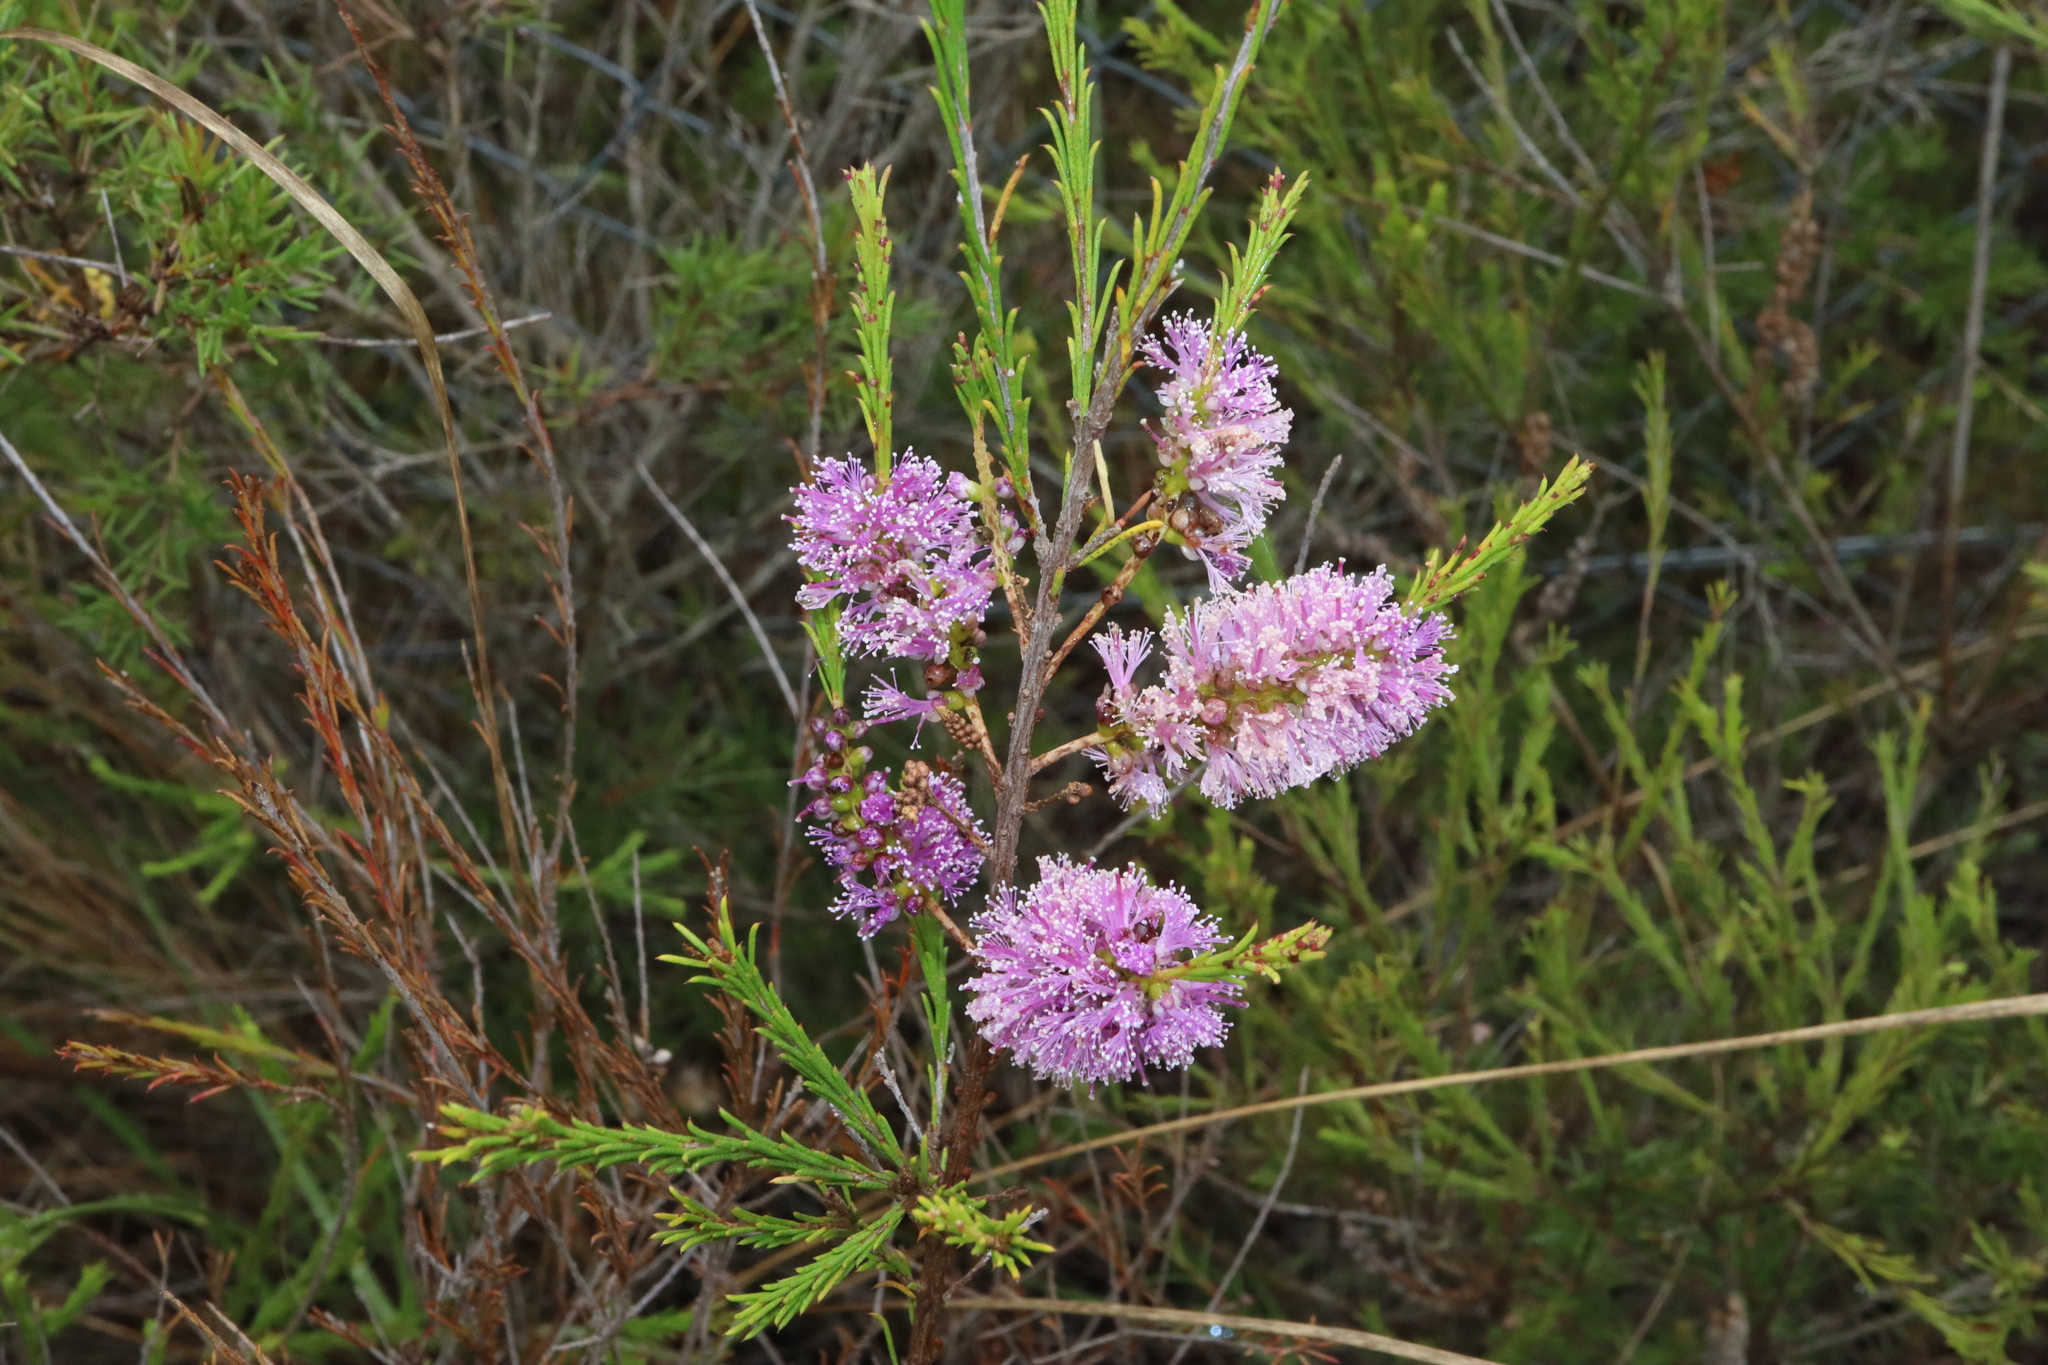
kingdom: Plantae
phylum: Tracheophyta
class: Magnoliopsida
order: Myrtales
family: Myrtaceae
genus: Melaleuca
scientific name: Melaleuca diosmatifolia
